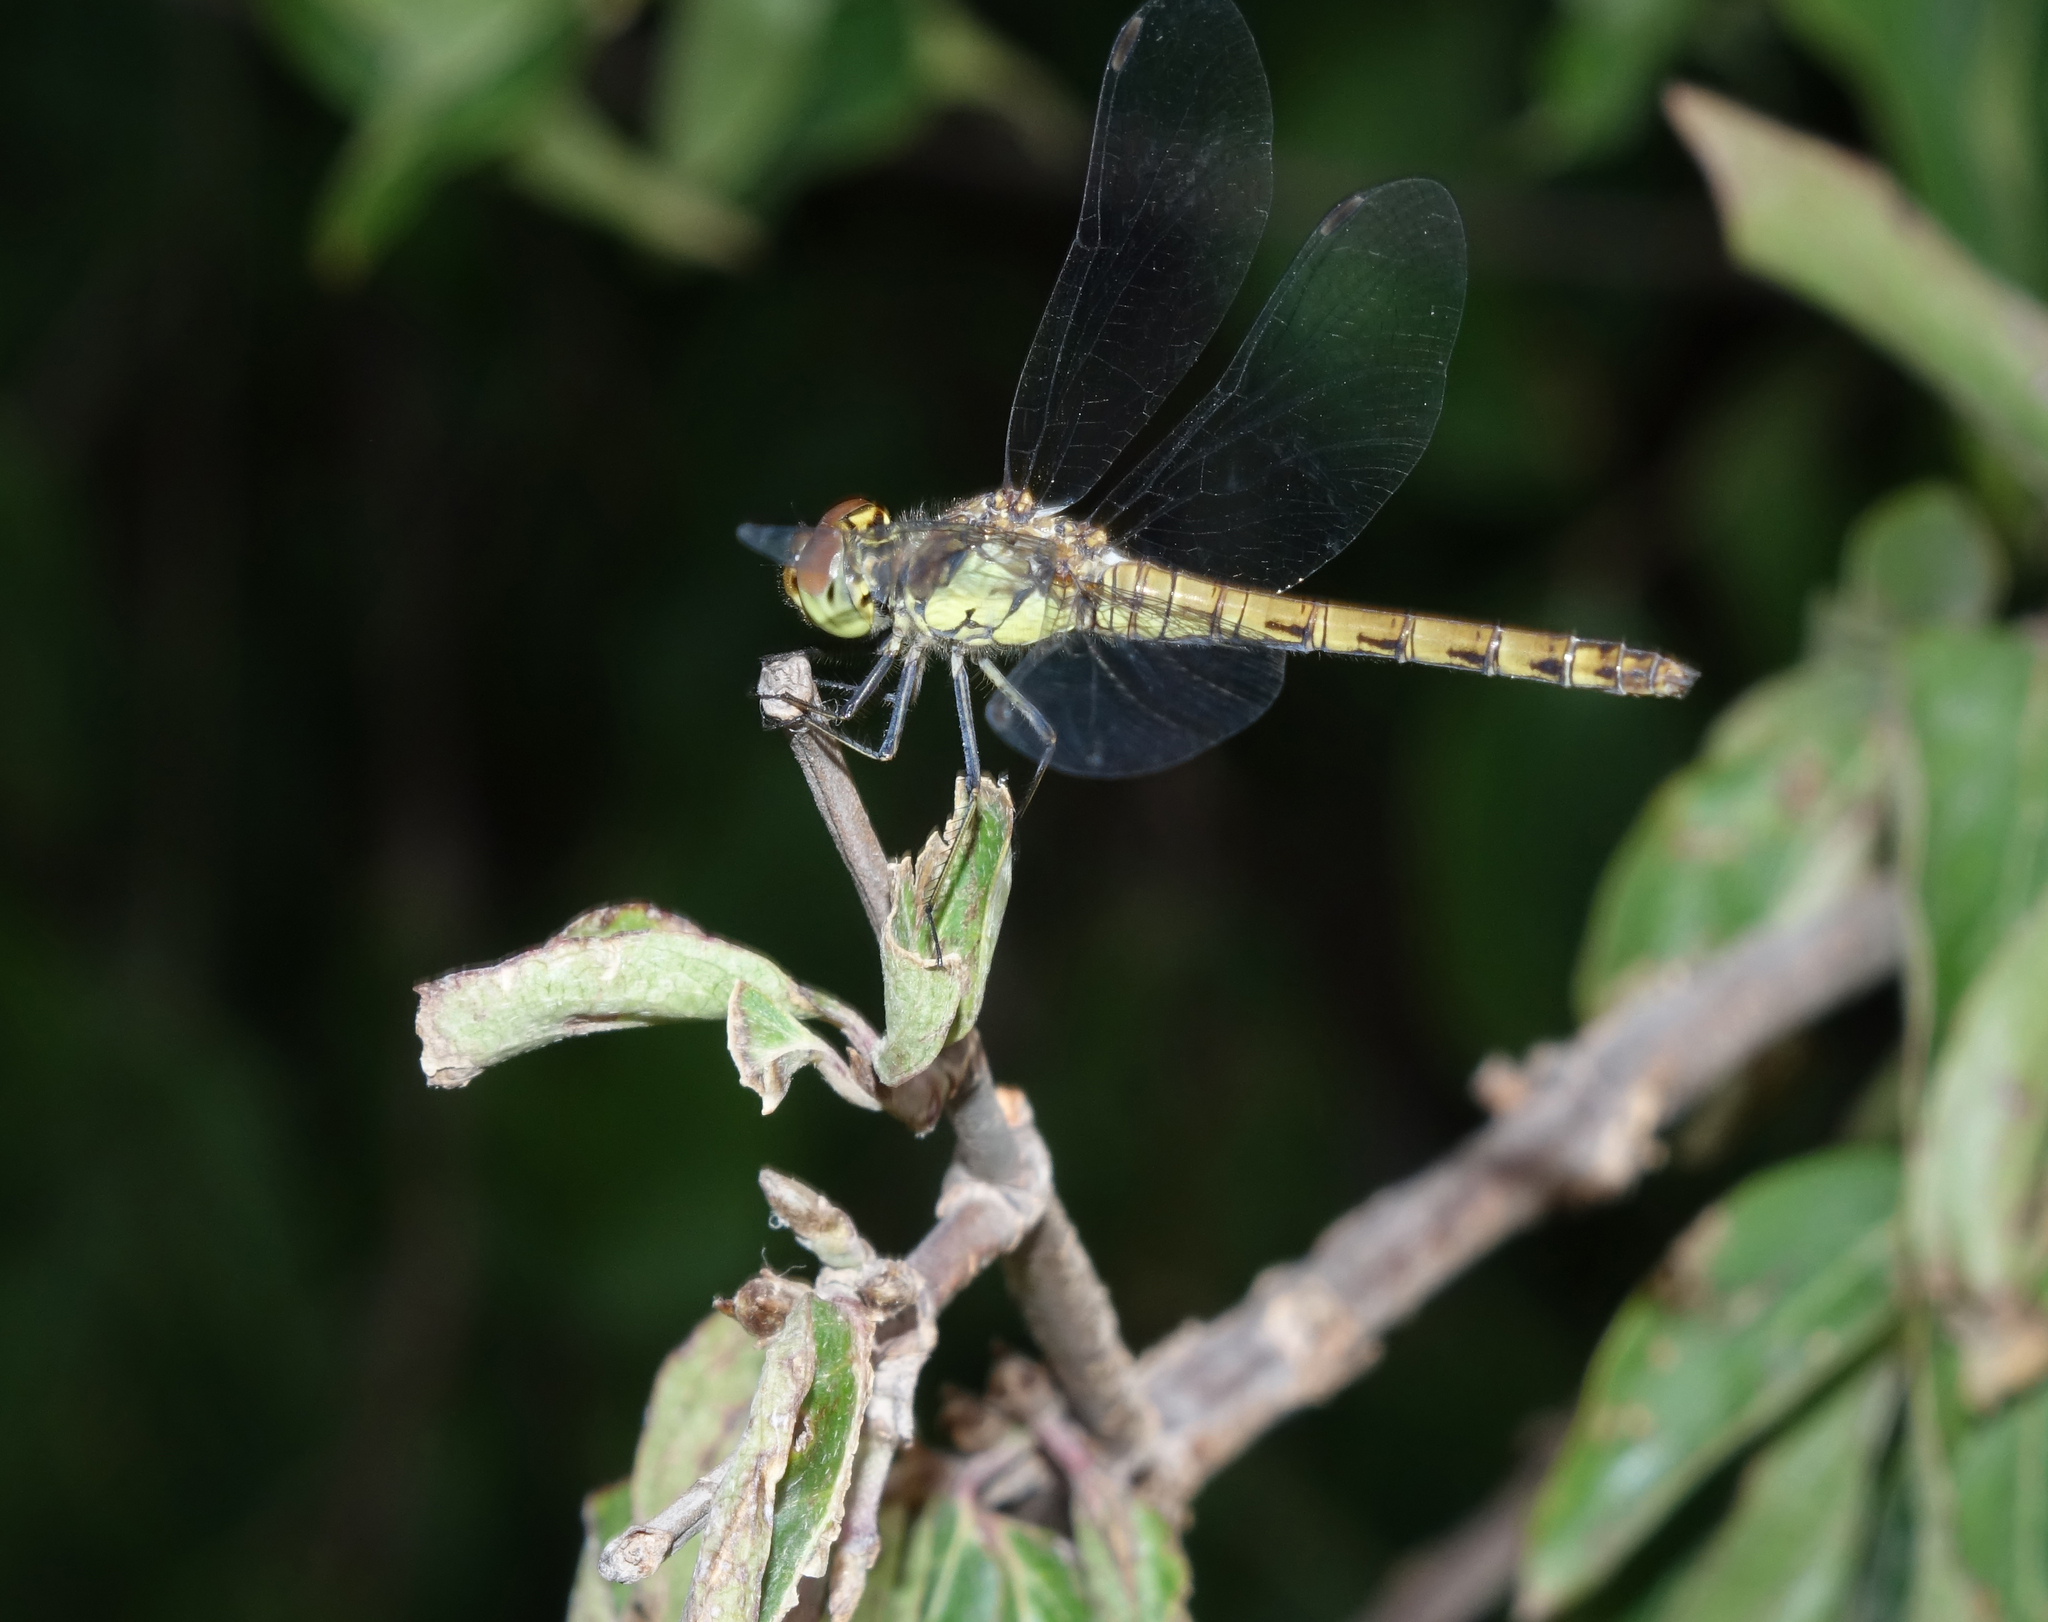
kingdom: Animalia
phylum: Arthropoda
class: Insecta
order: Odonata
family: Libellulidae
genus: Sympetrum
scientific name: Sympetrum striolatum
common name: Common darter
